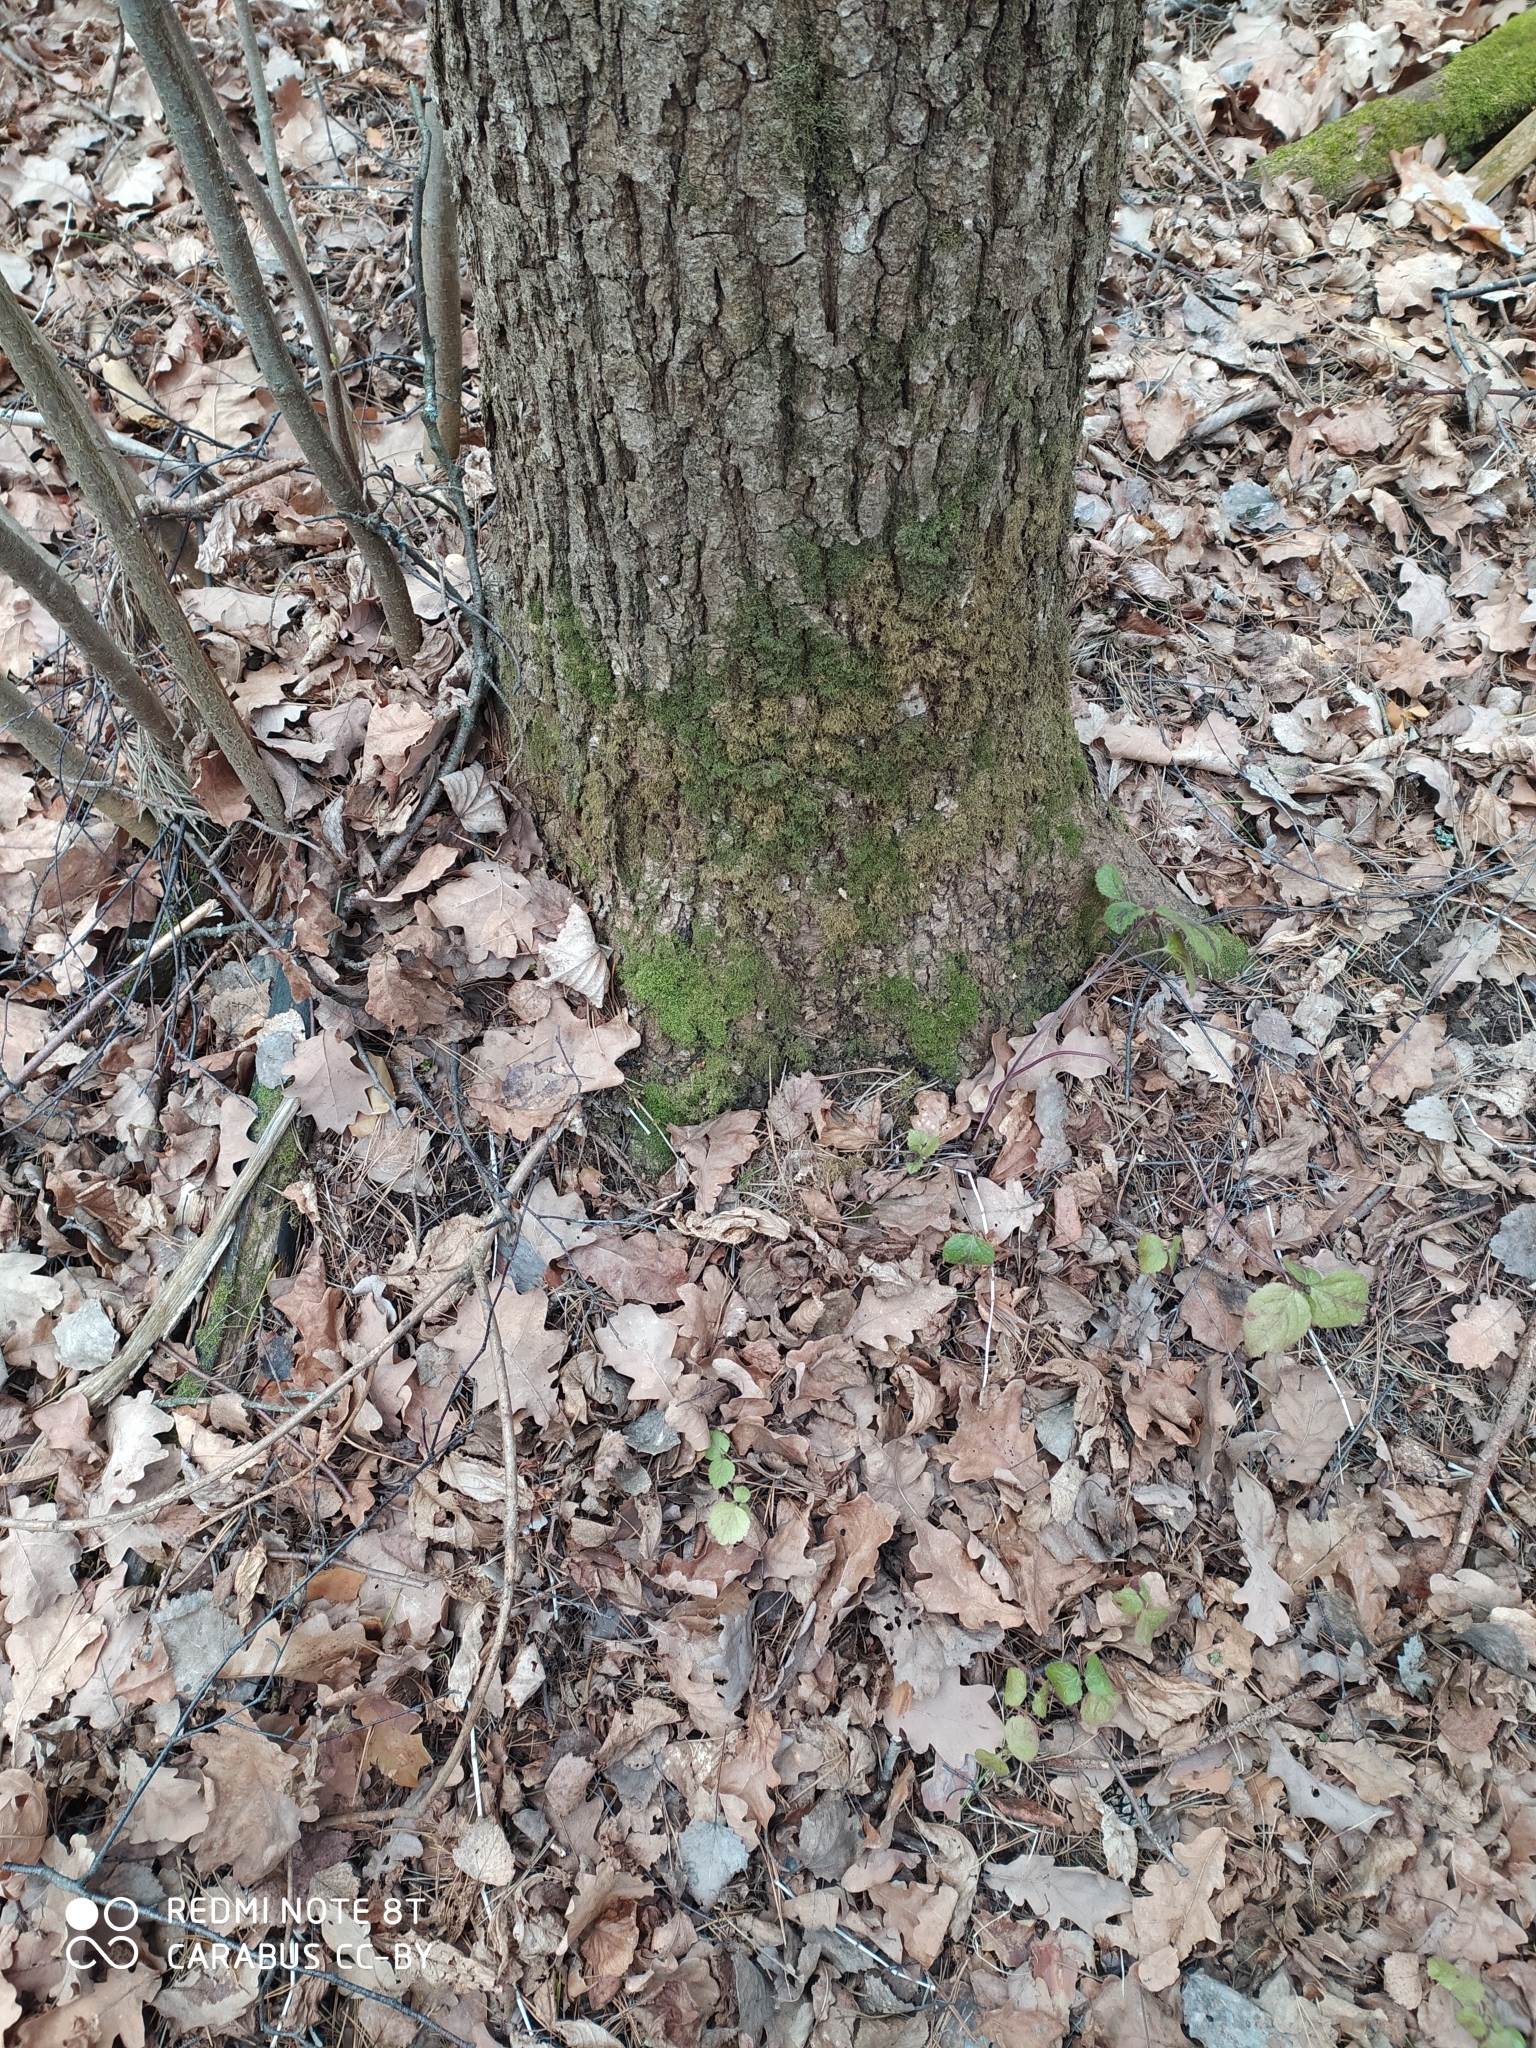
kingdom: Plantae
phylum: Tracheophyta
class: Magnoliopsida
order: Fagales
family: Fagaceae
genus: Quercus
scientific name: Quercus robur
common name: Pedunculate oak
